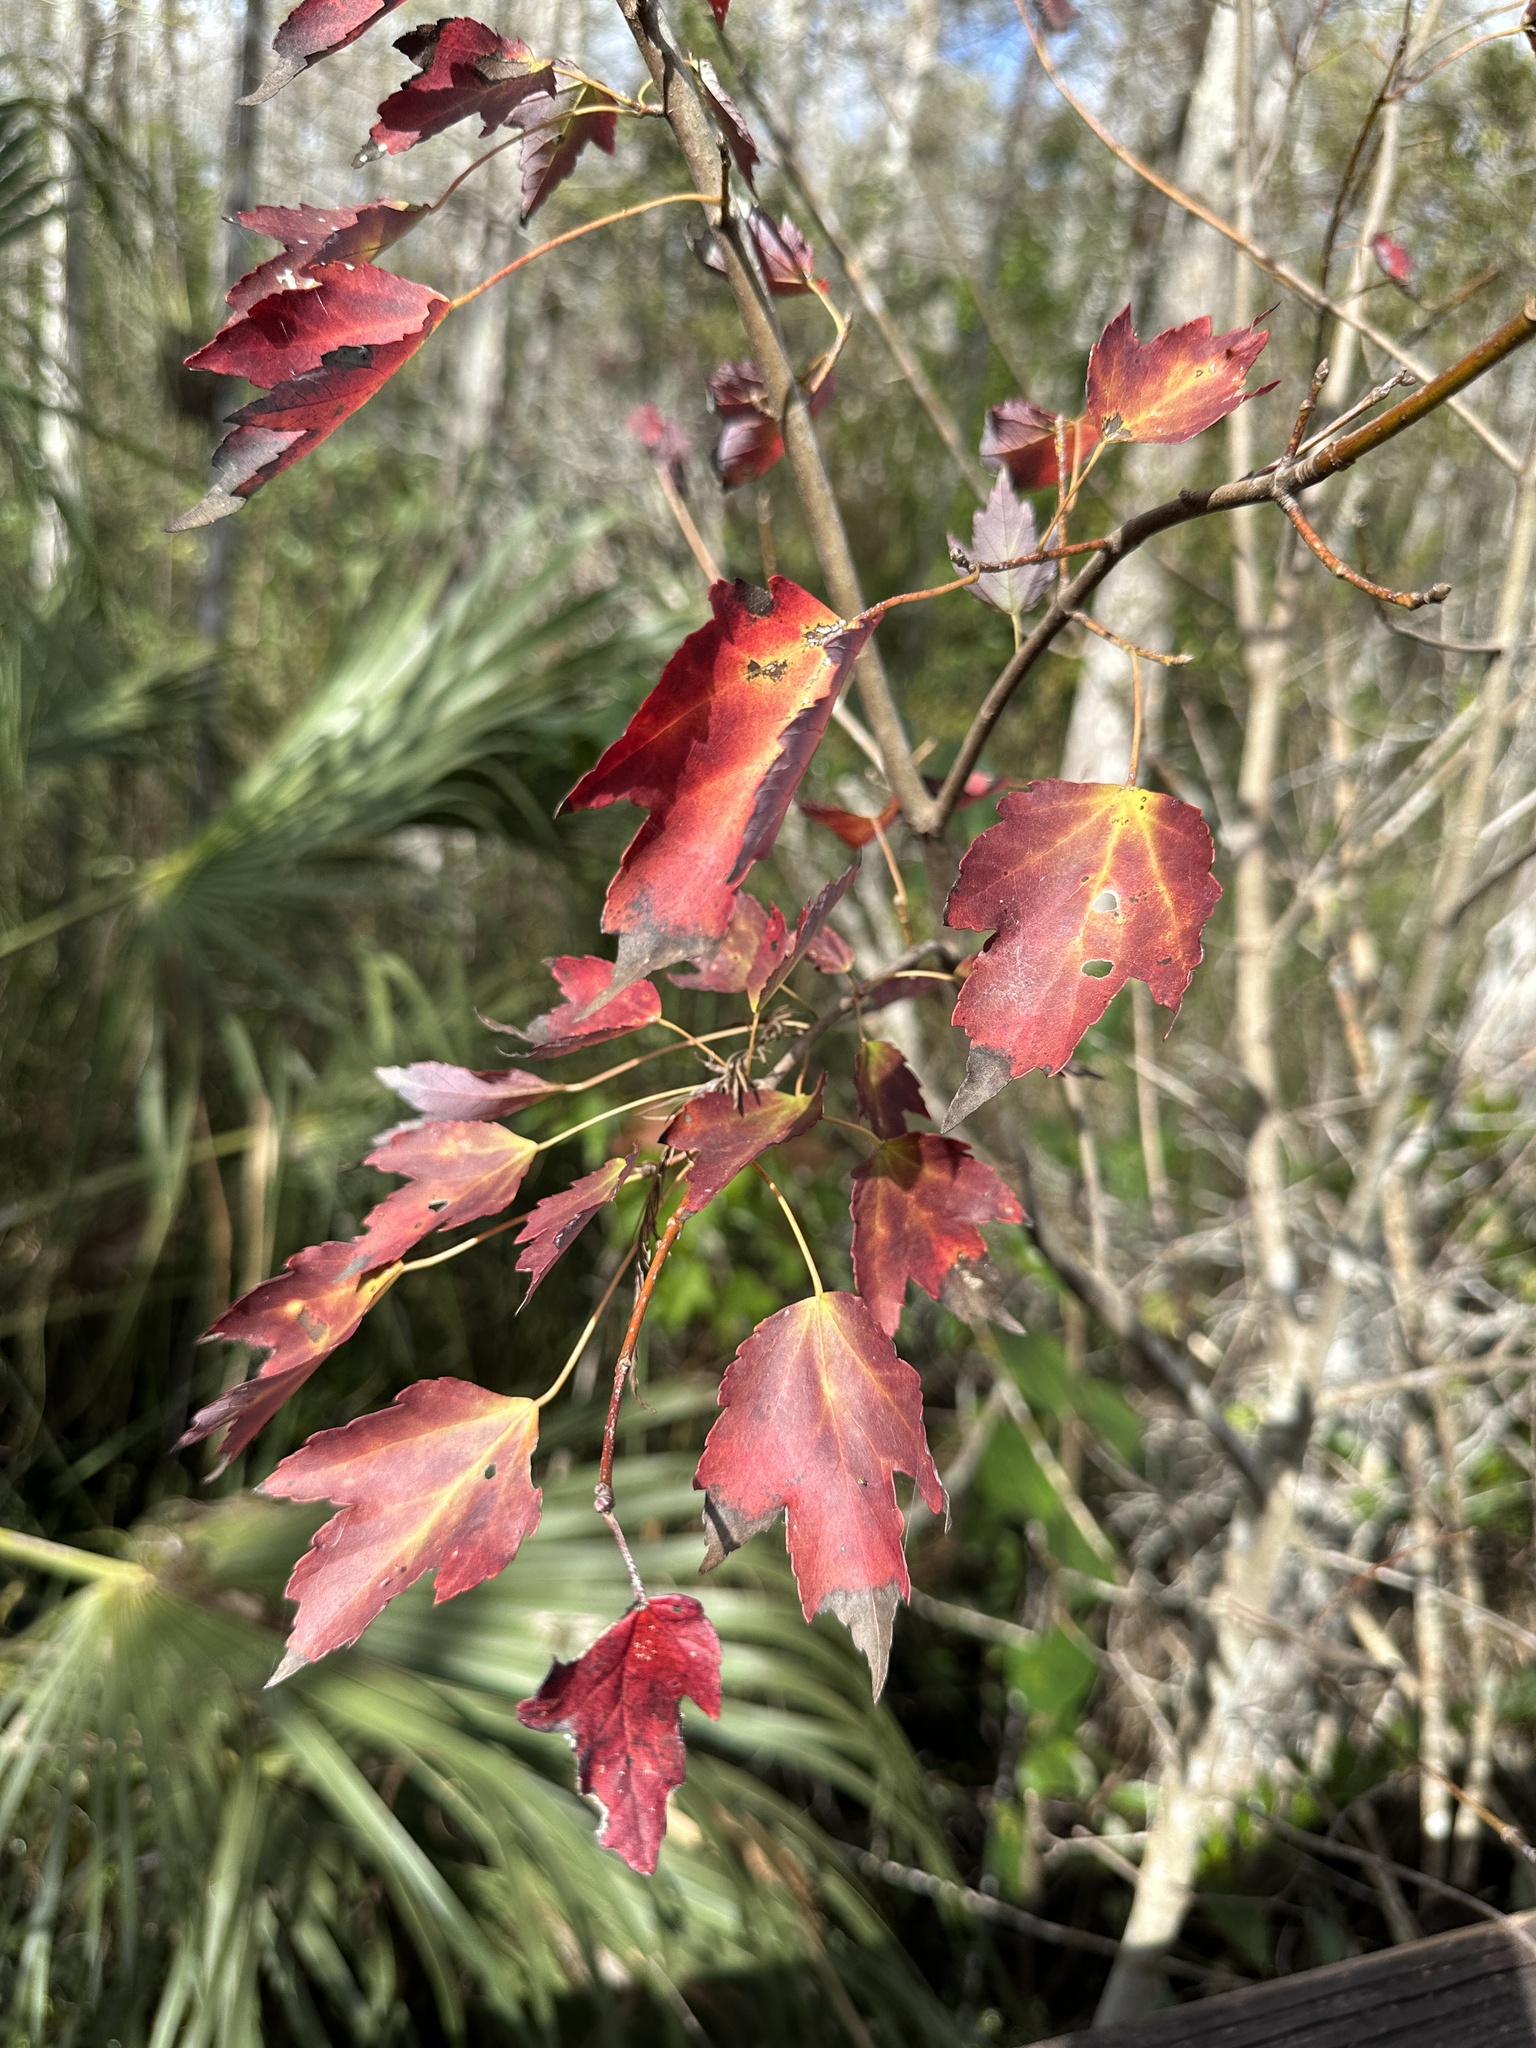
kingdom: Plantae
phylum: Tracheophyta
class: Magnoliopsida
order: Sapindales
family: Sapindaceae
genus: Acer
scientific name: Acer rubrum
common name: Red maple
